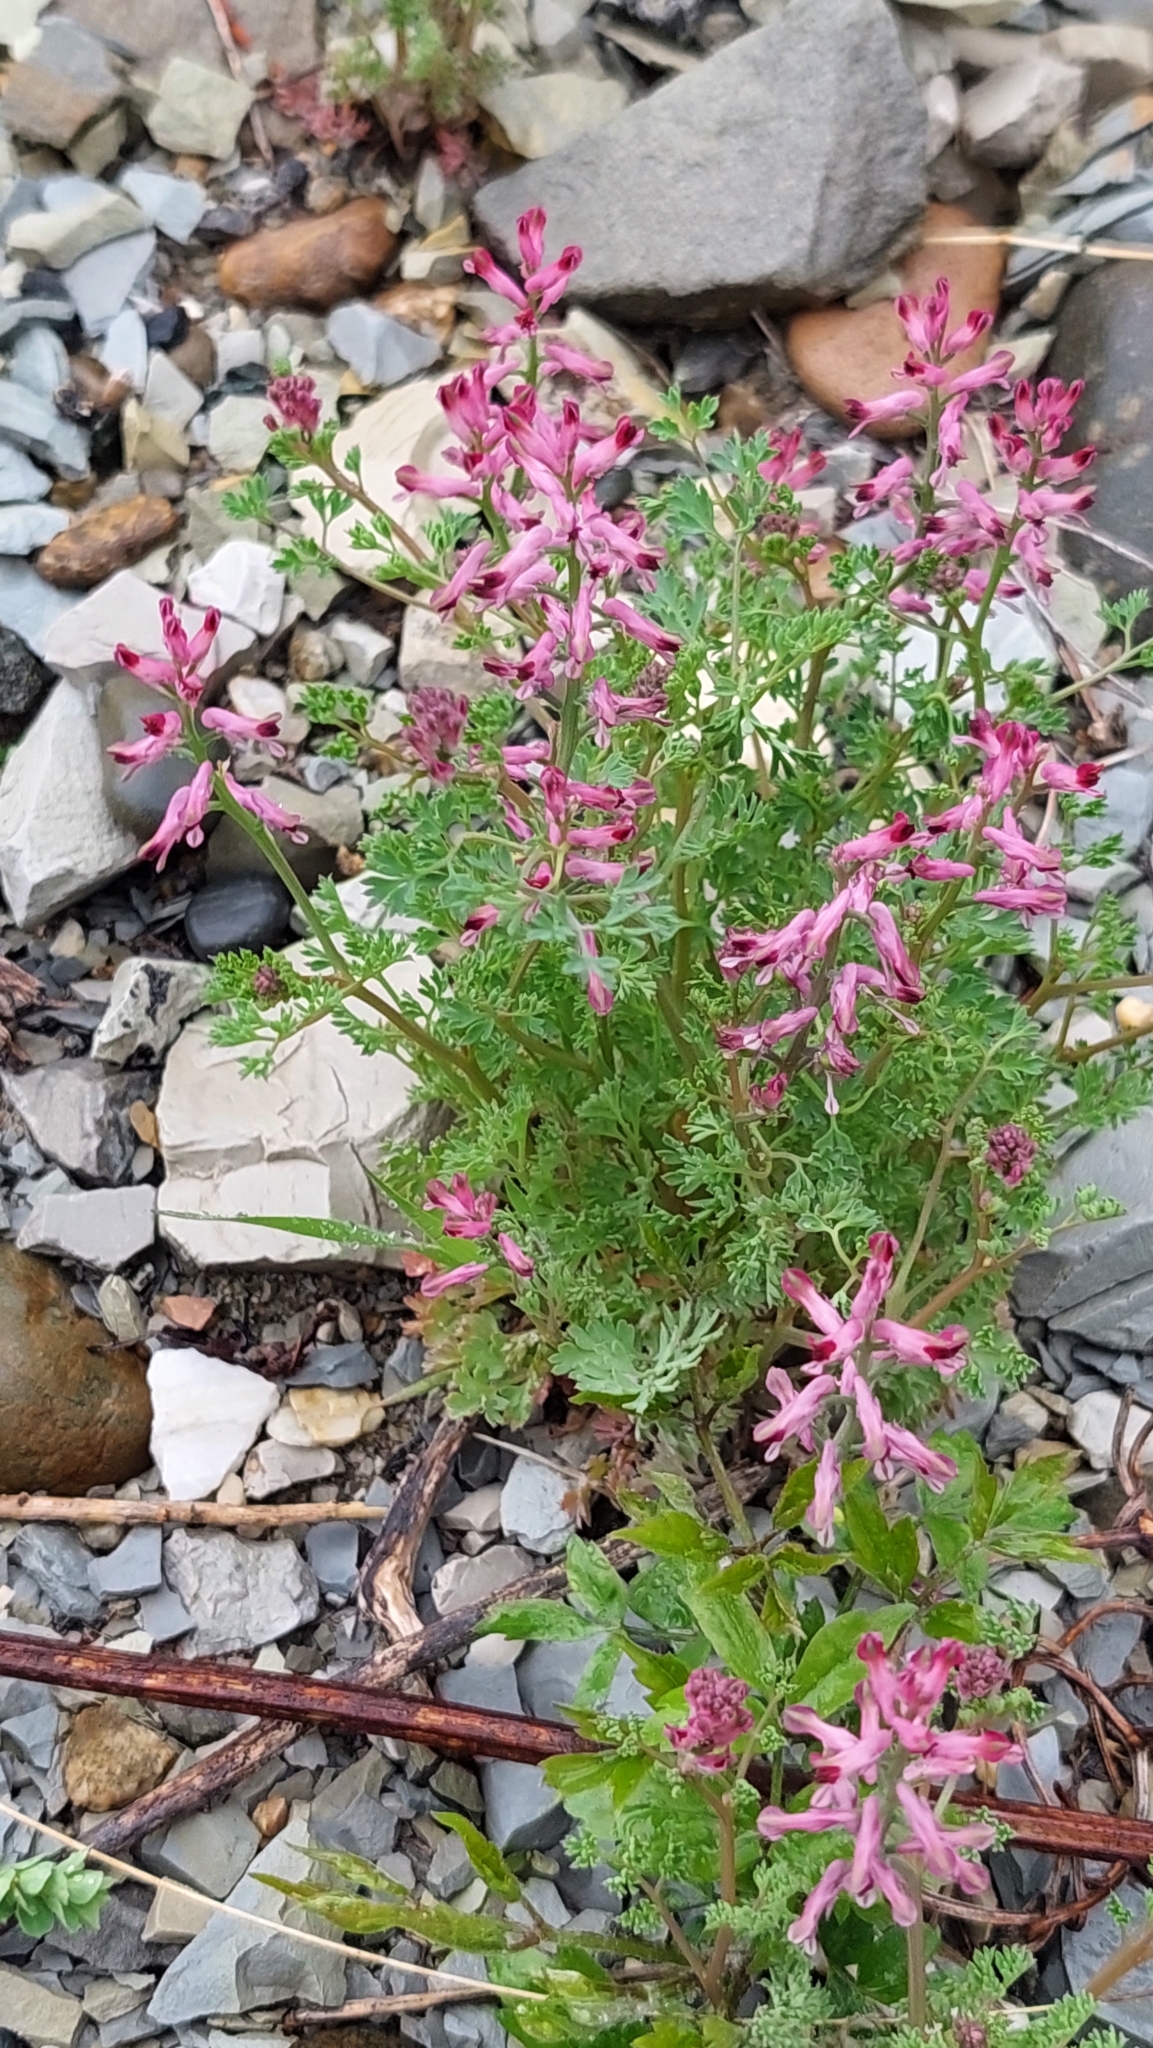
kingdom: Plantae
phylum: Tracheophyta
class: Magnoliopsida
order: Ranunculales
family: Papaveraceae
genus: Fumaria
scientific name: Fumaria officinalis
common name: Common fumitory
